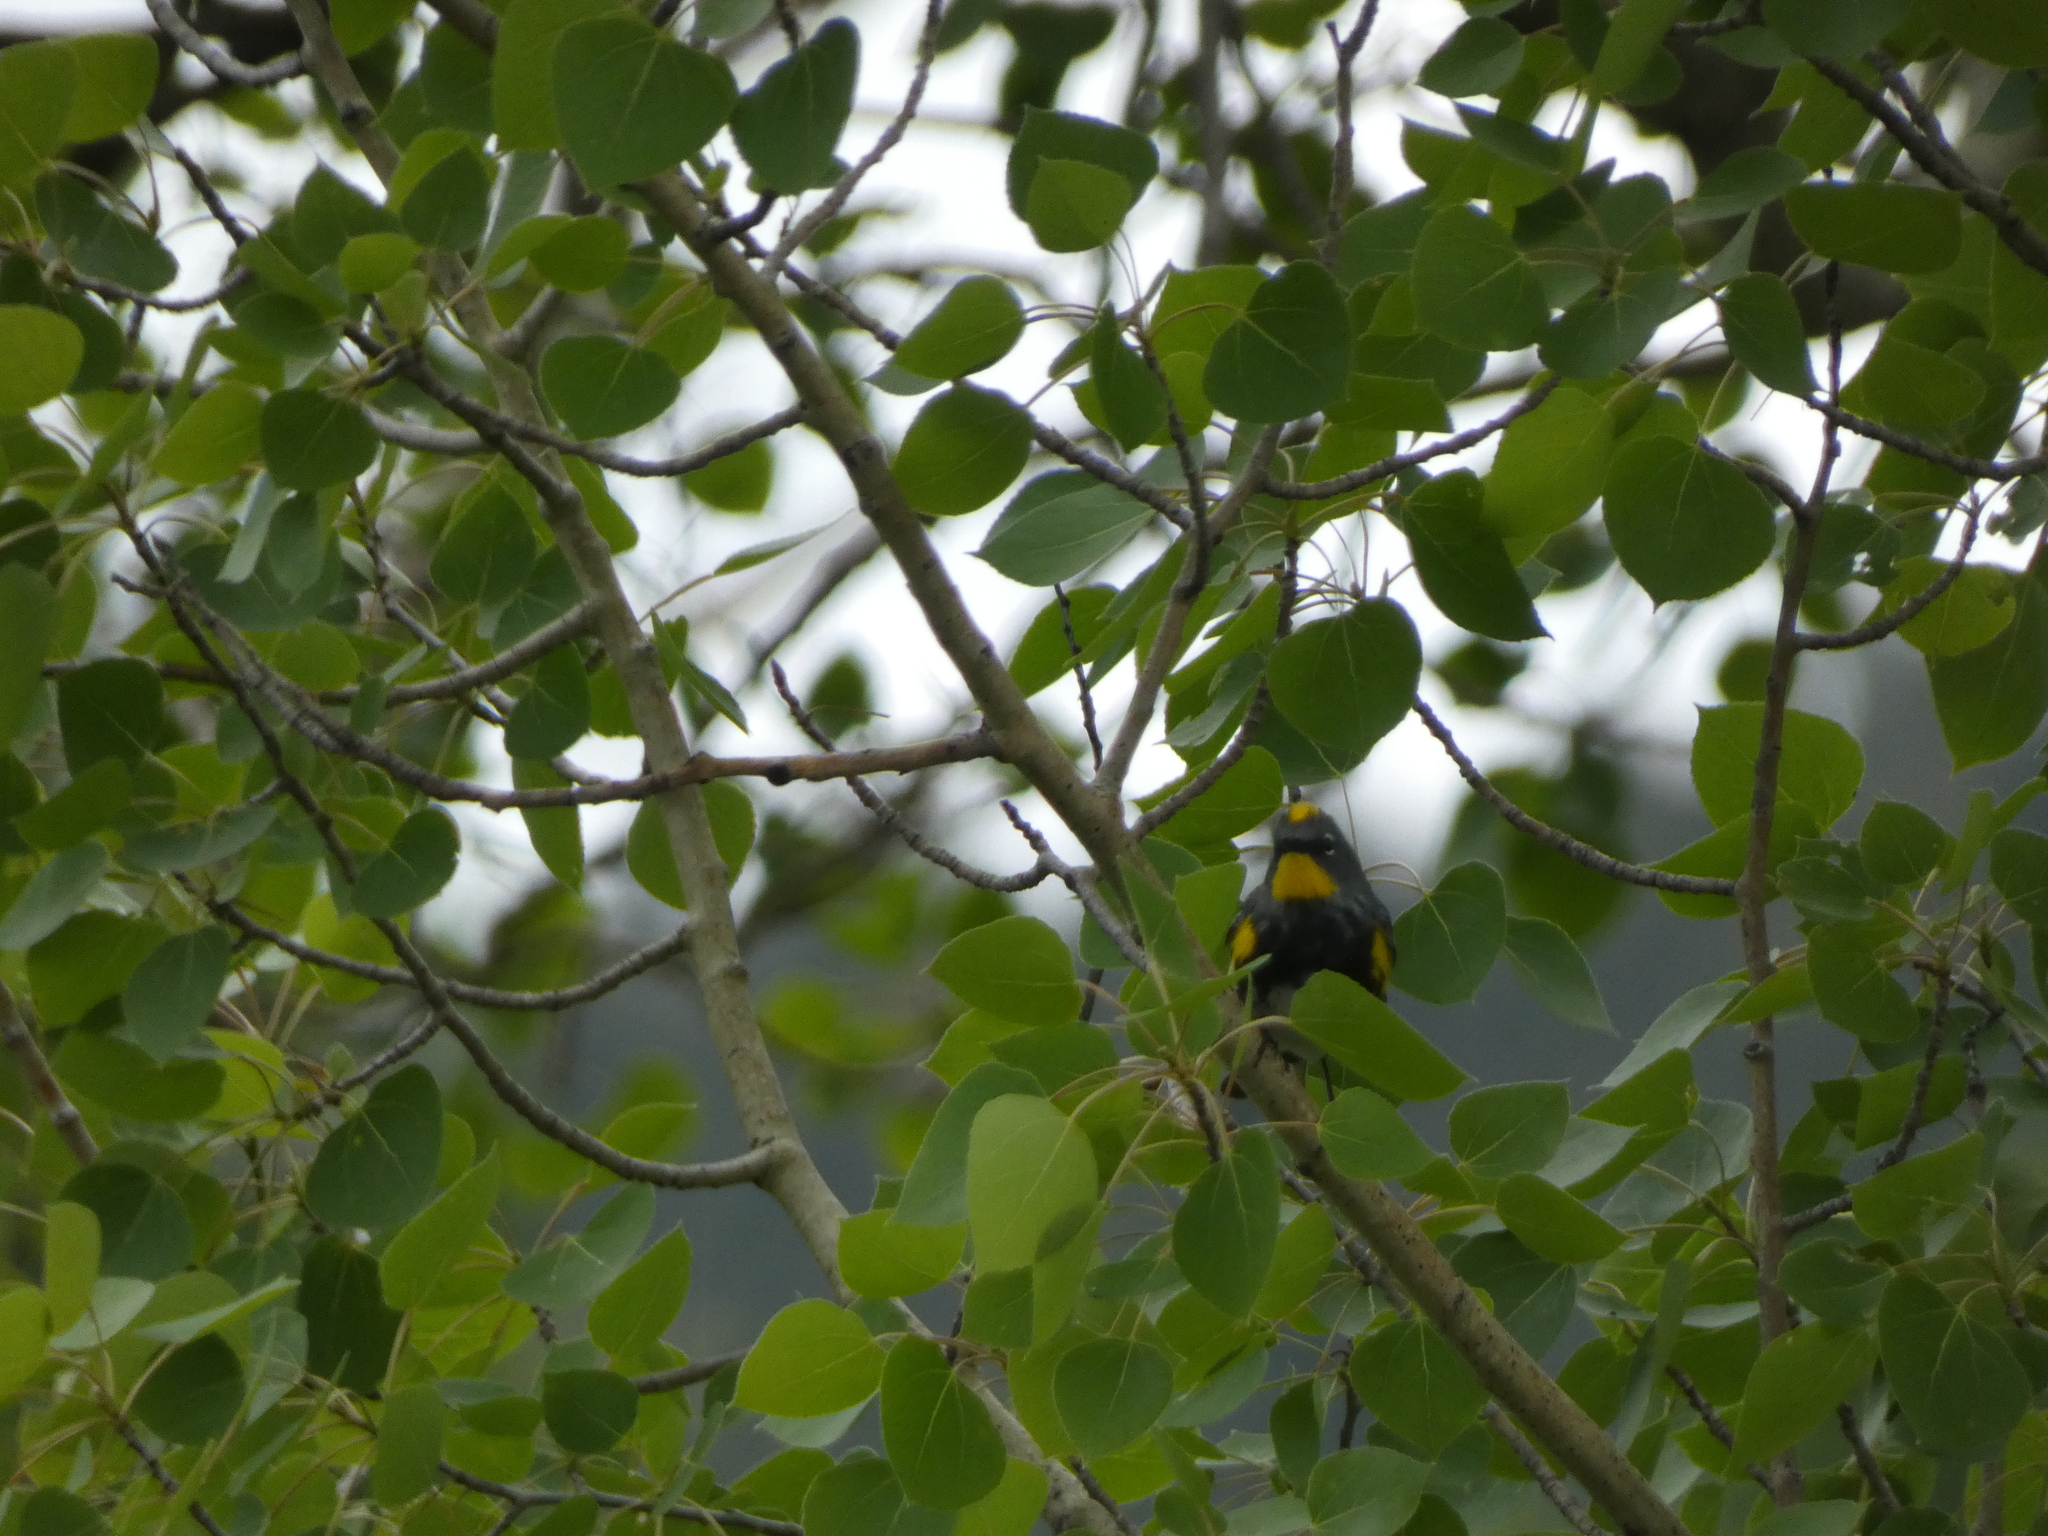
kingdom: Animalia
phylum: Chordata
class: Aves
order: Passeriformes
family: Parulidae
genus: Setophaga
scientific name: Setophaga coronata
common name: Myrtle warbler
